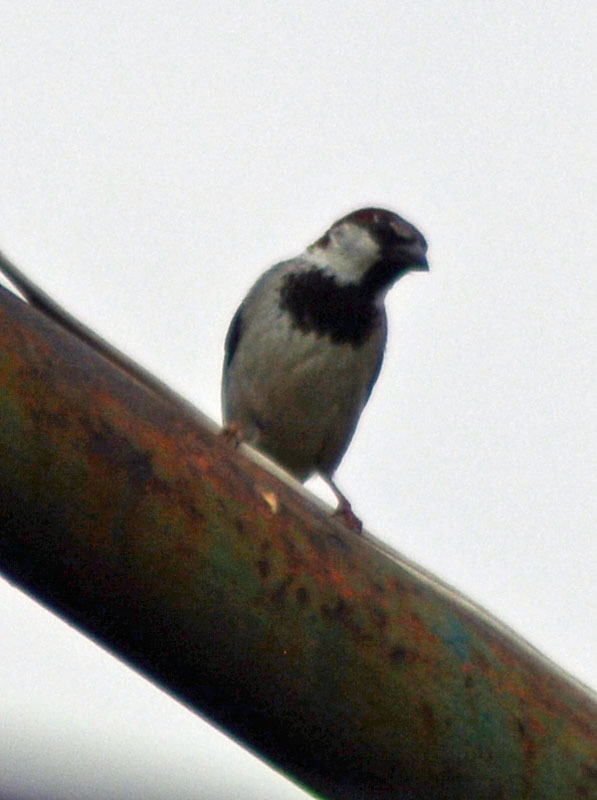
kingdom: Animalia
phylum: Chordata
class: Aves
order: Passeriformes
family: Passeridae
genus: Passer
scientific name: Passer domesticus
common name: House sparrow
